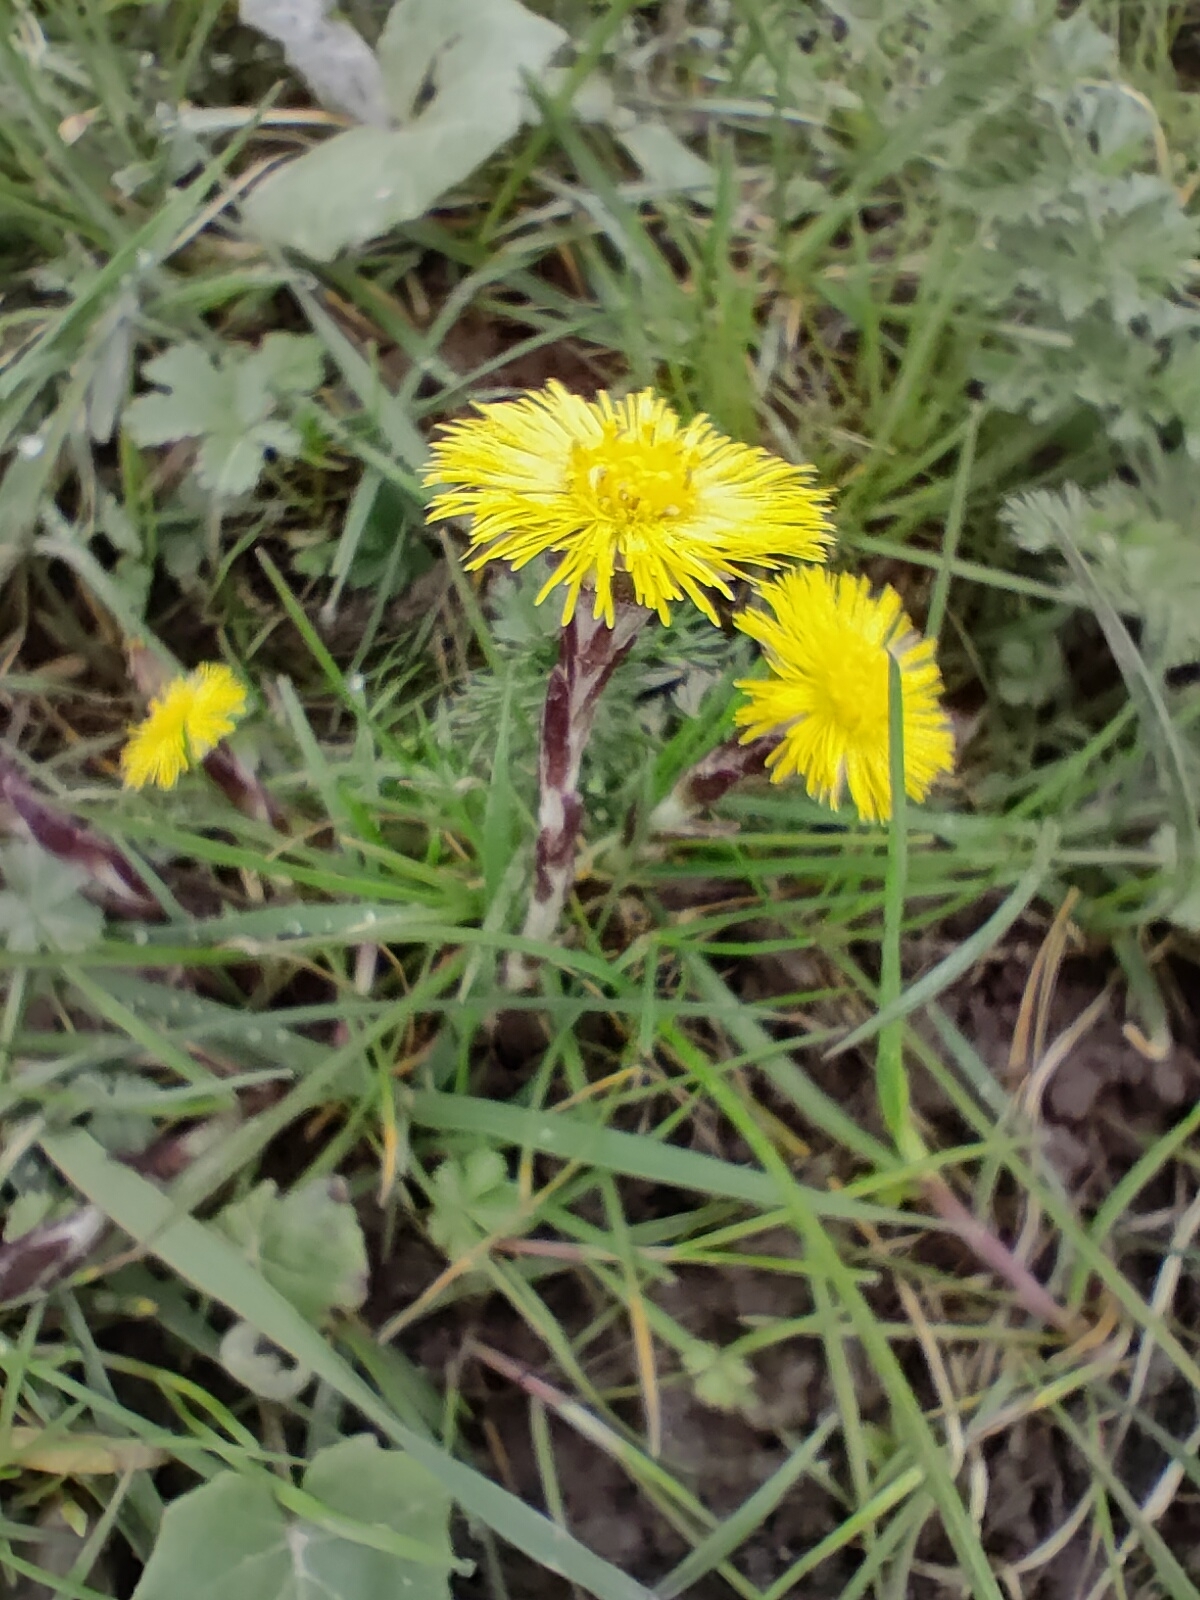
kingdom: Plantae
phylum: Tracheophyta
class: Magnoliopsida
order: Asterales
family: Asteraceae
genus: Tussilago
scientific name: Tussilago farfara
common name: Coltsfoot
